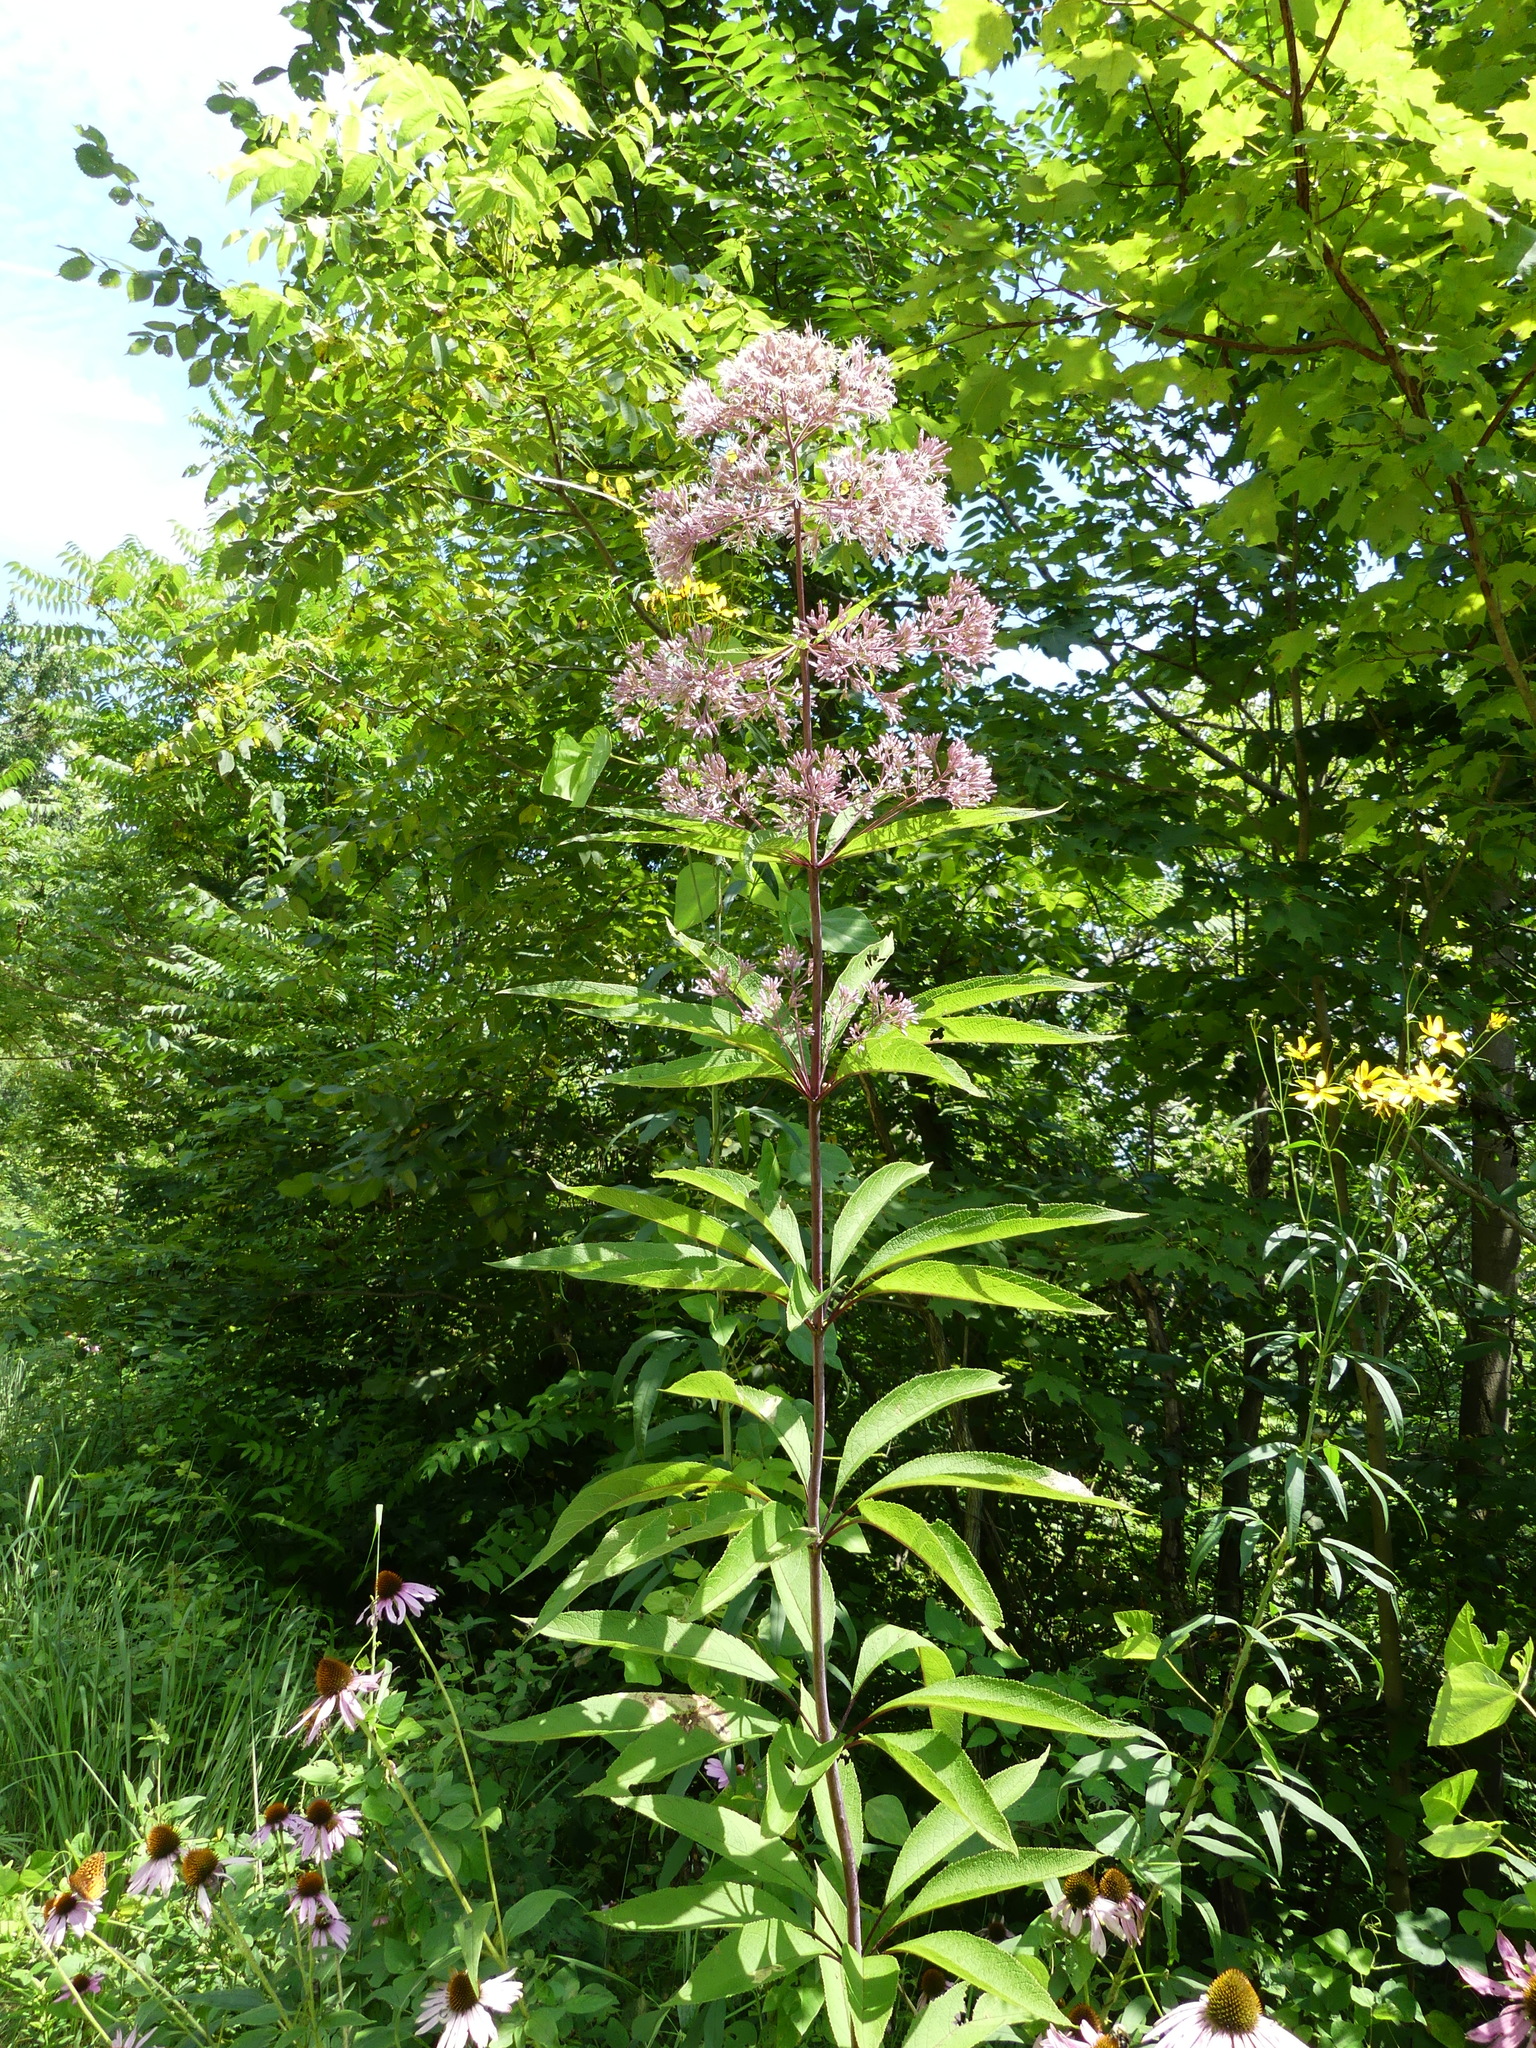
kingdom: Plantae
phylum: Tracheophyta
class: Magnoliopsida
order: Asterales
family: Asteraceae
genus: Eutrochium
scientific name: Eutrochium fistulosum
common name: Trumpetweed
